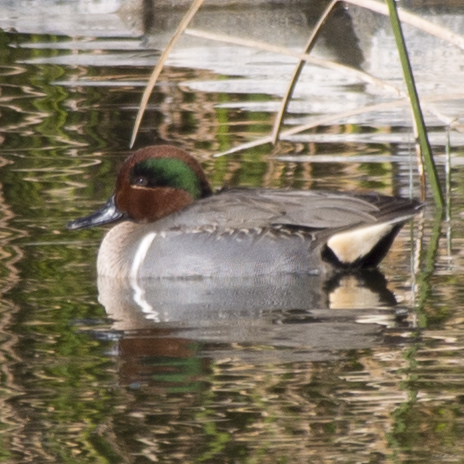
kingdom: Animalia
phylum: Chordata
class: Aves
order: Anseriformes
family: Anatidae
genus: Anas
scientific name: Anas crecca
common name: Eurasian teal
